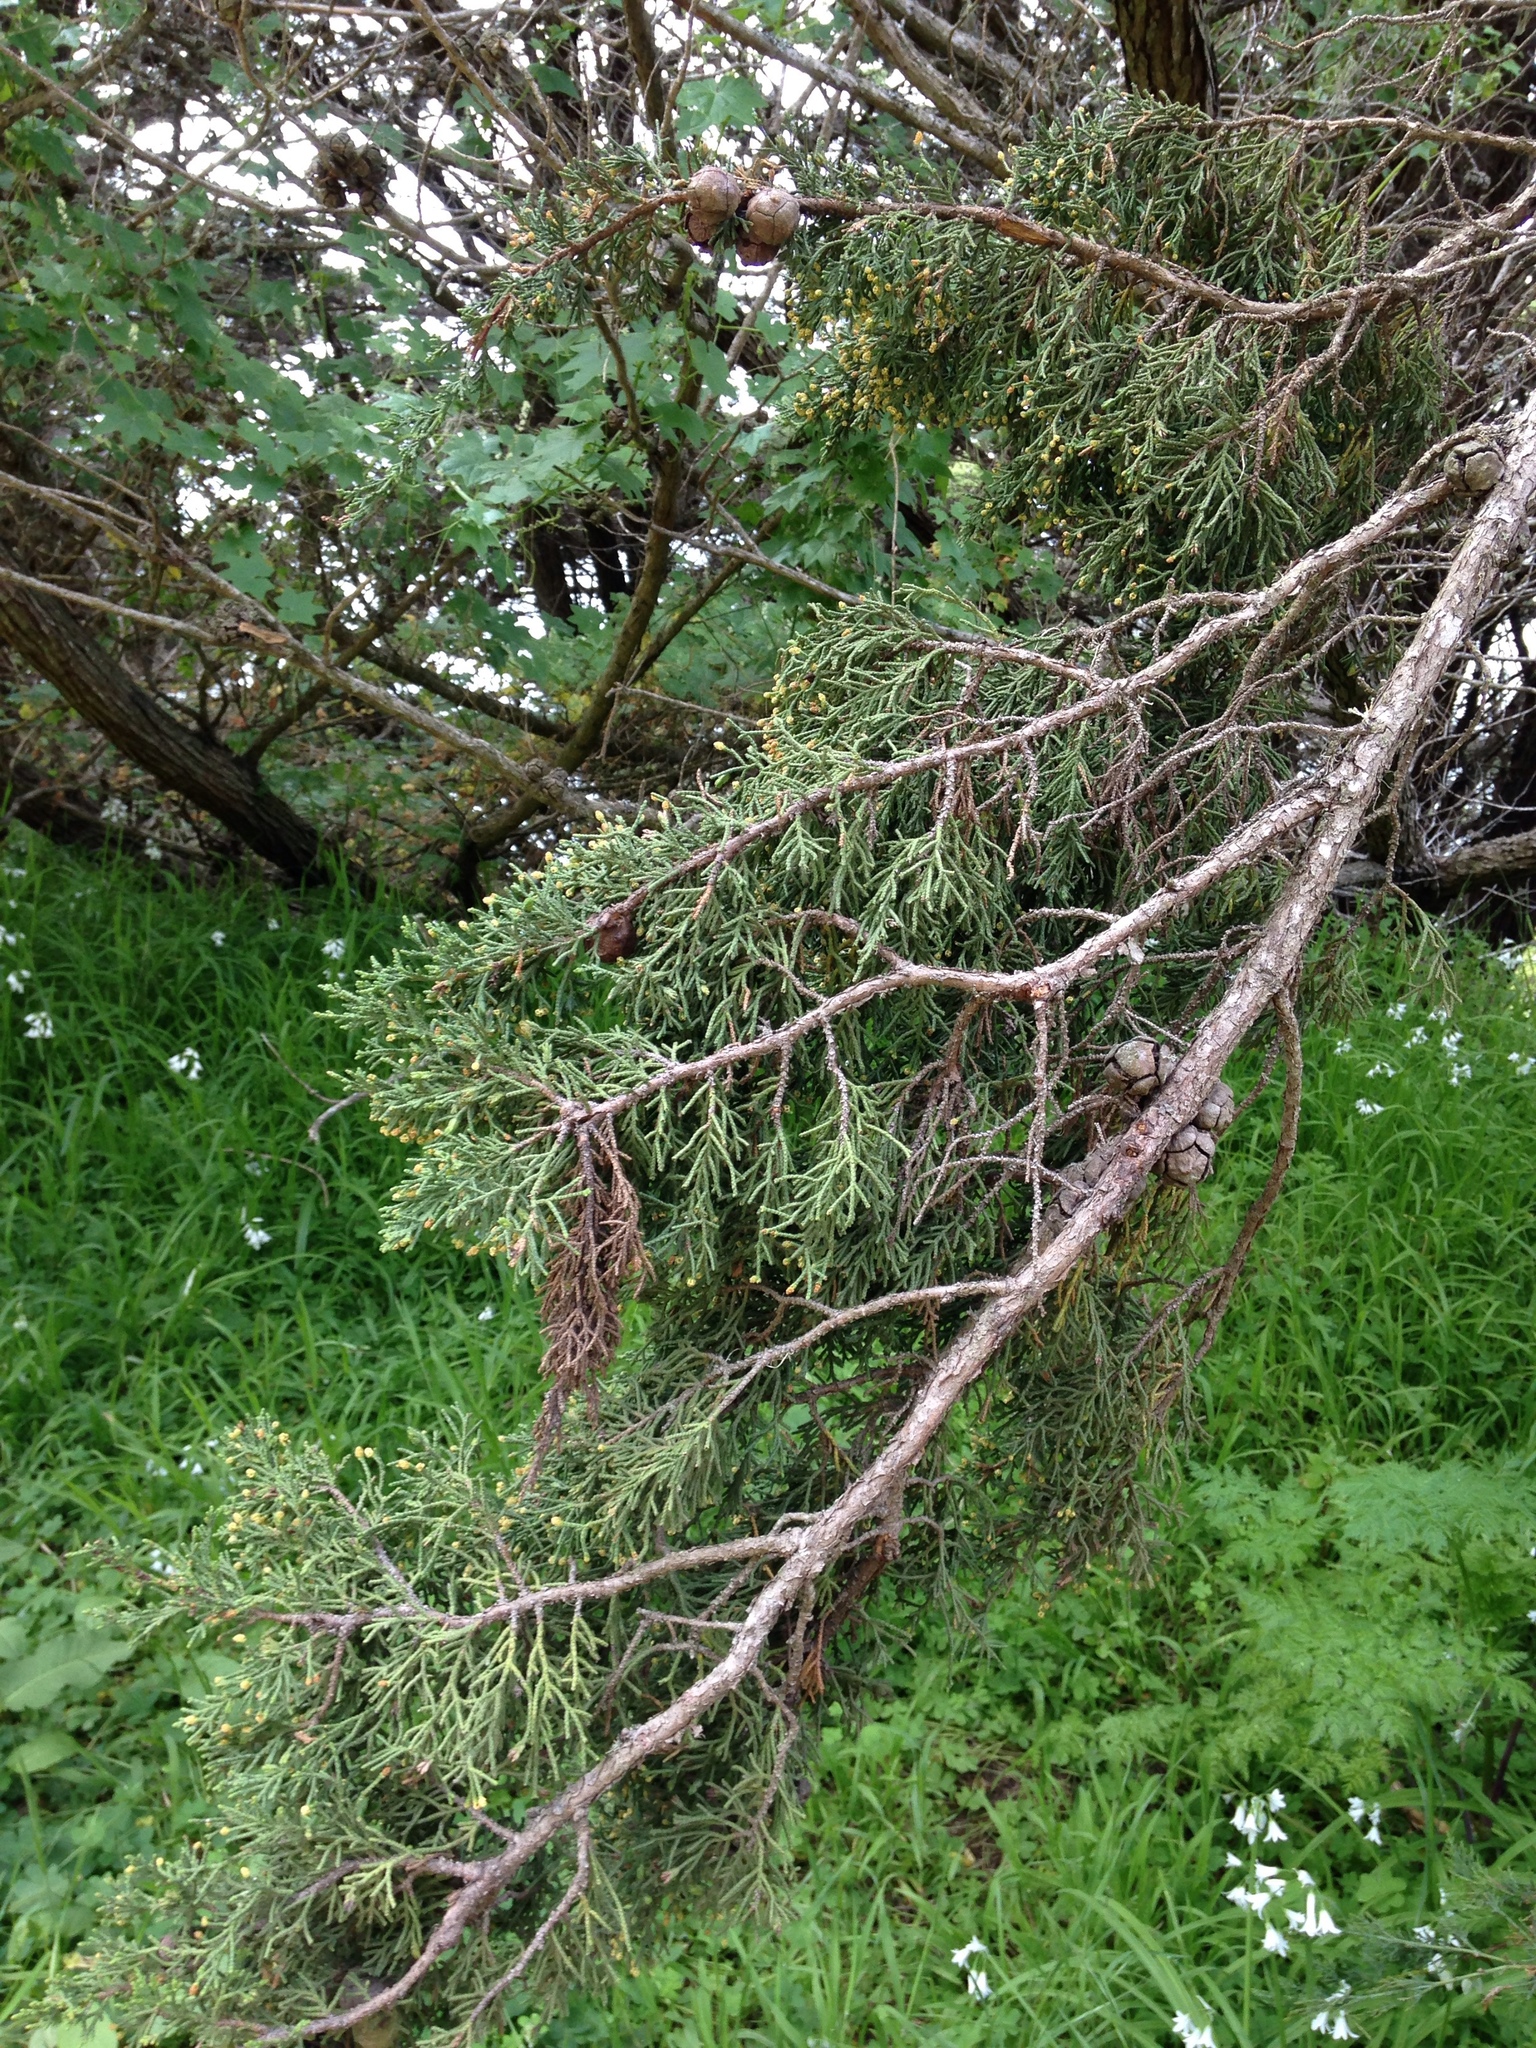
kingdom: Plantae
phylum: Tracheophyta
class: Pinopsida
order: Pinales
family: Cupressaceae
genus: Cupressus
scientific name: Cupressus macrocarpa
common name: Monterey cypress
